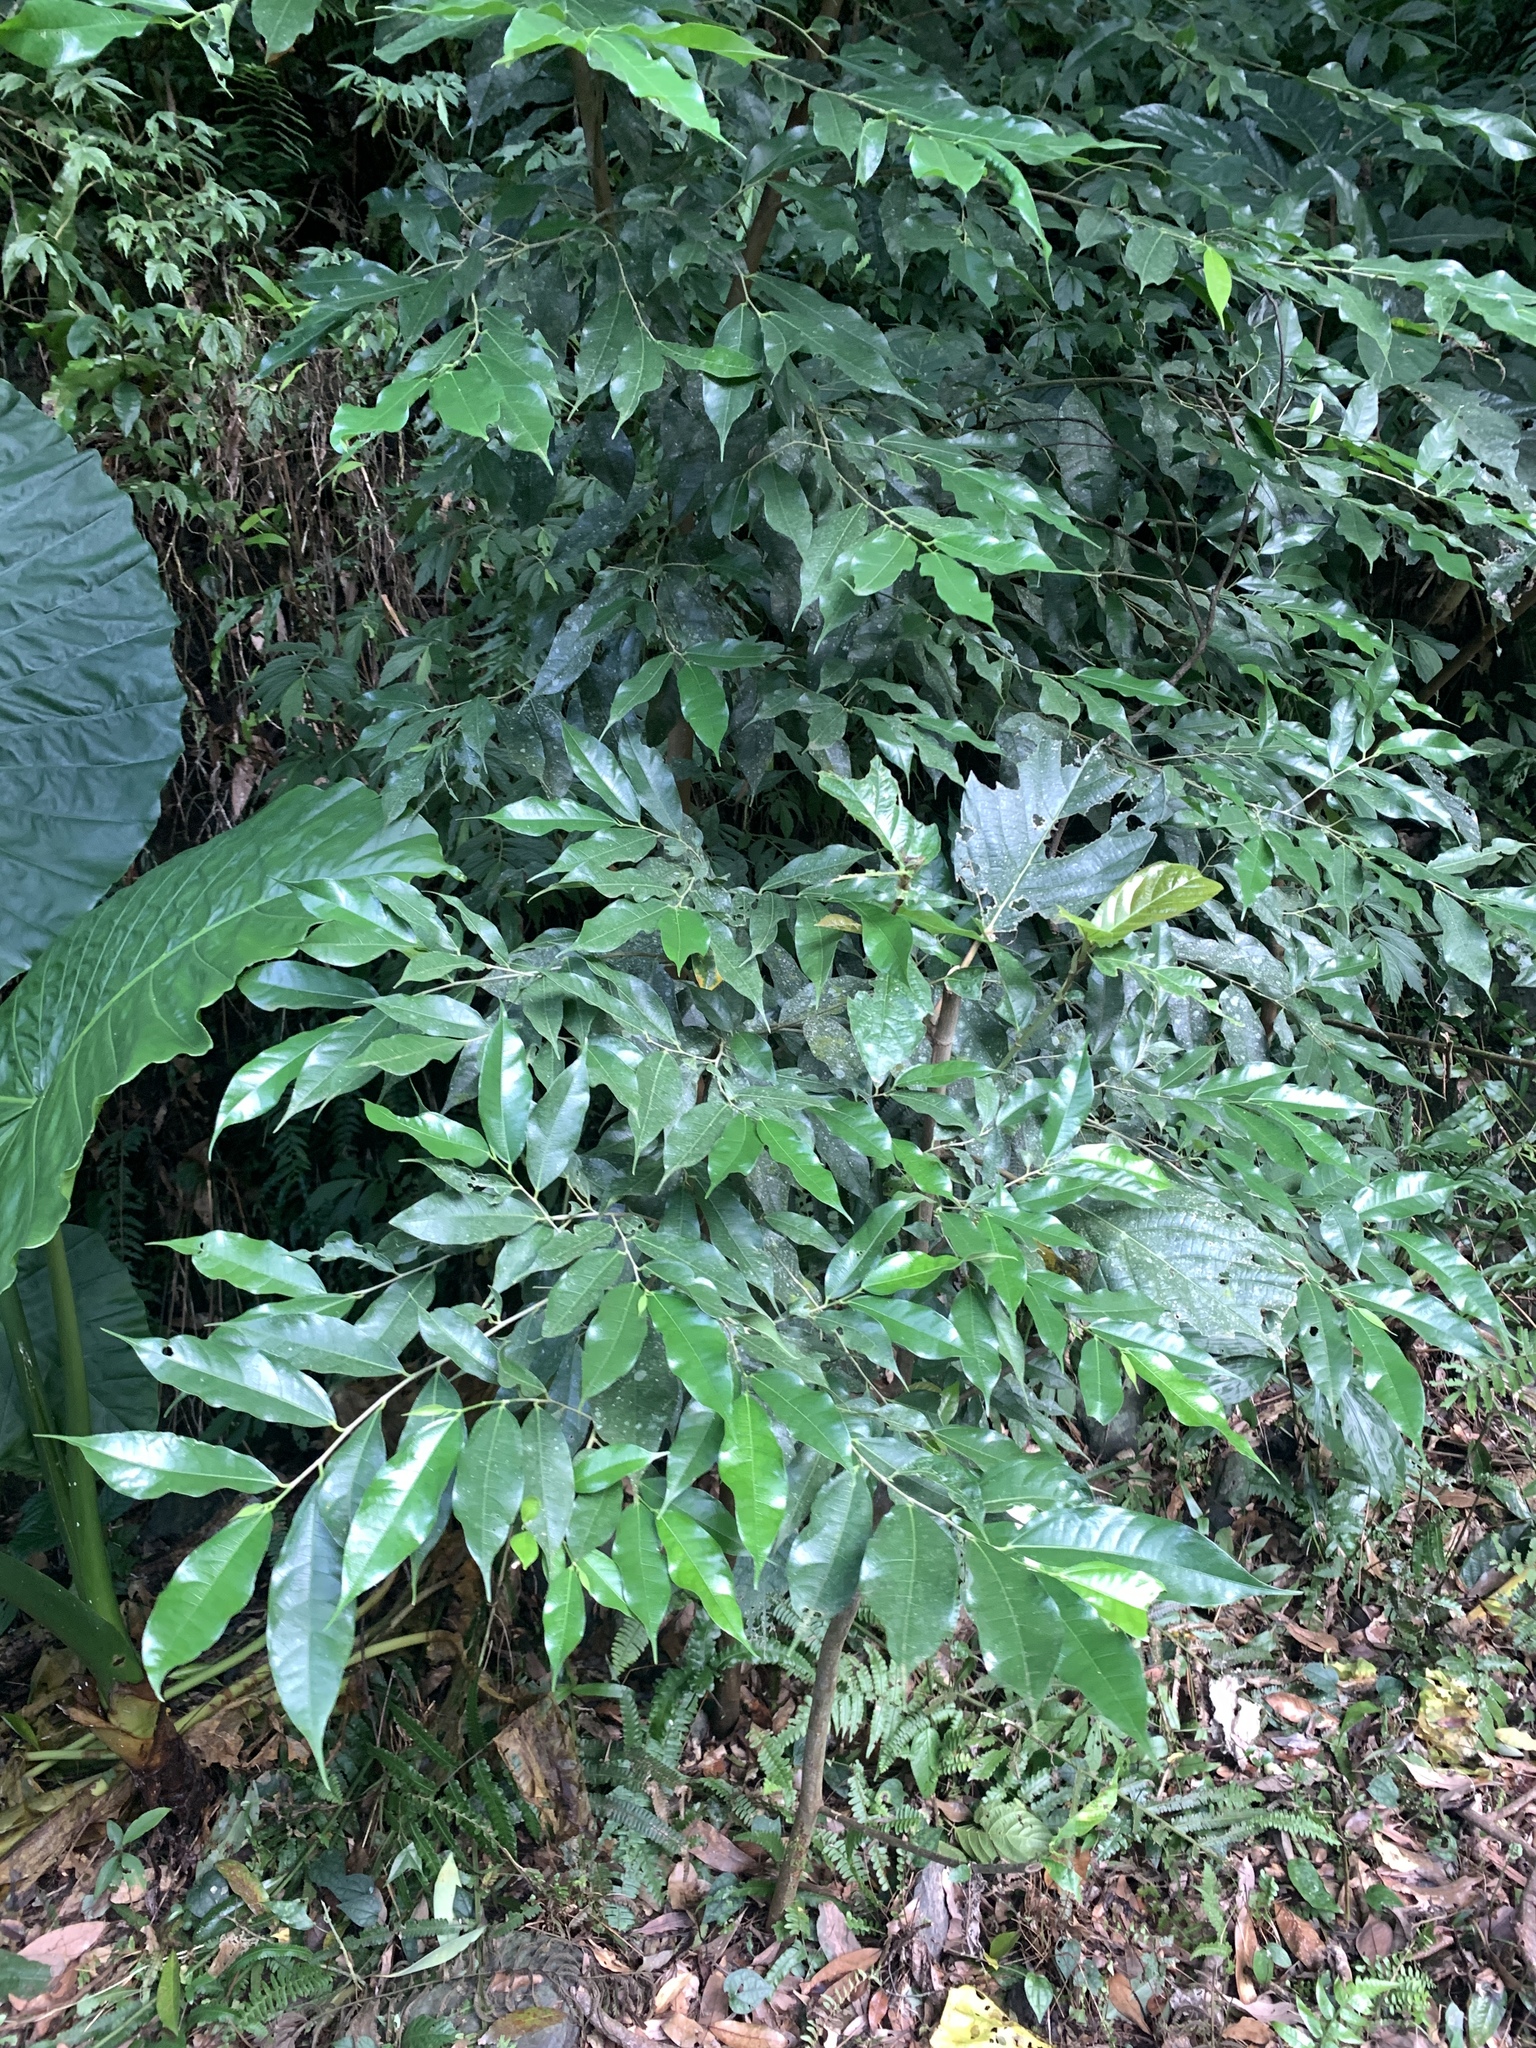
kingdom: Plantae
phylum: Tracheophyta
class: Magnoliopsida
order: Rosales
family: Moraceae
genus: Ficus
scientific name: Ficus ampelos
